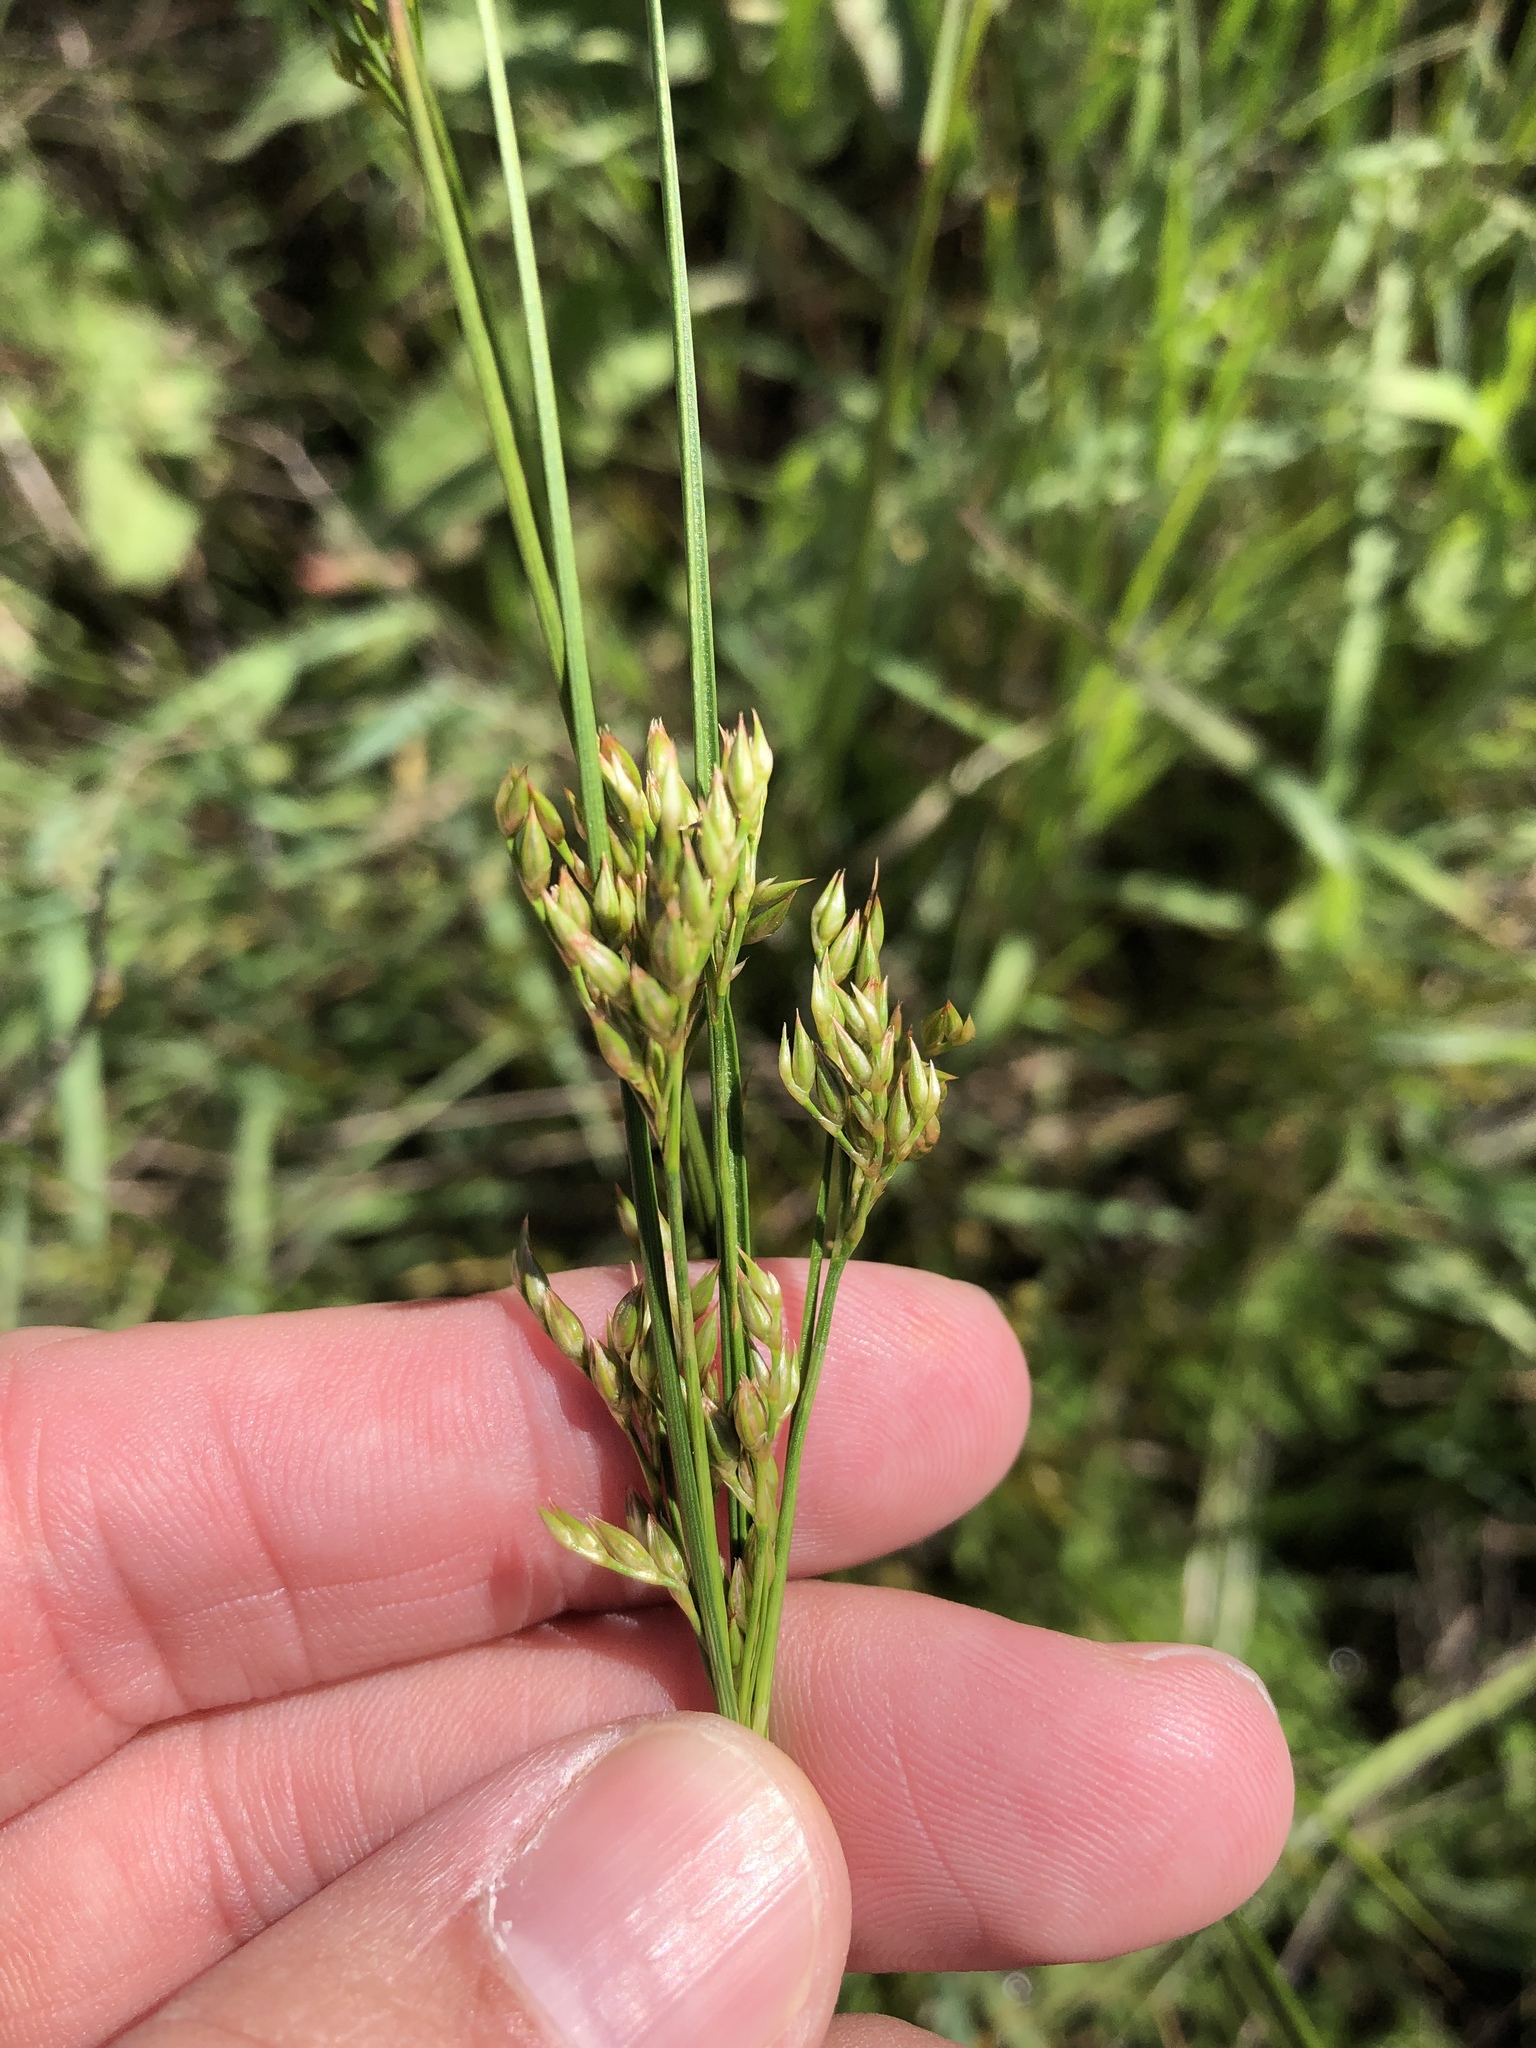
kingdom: Plantae
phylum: Tracheophyta
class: Liliopsida
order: Poales
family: Juncaceae
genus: Juncus
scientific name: Juncus interior
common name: Interior rush
